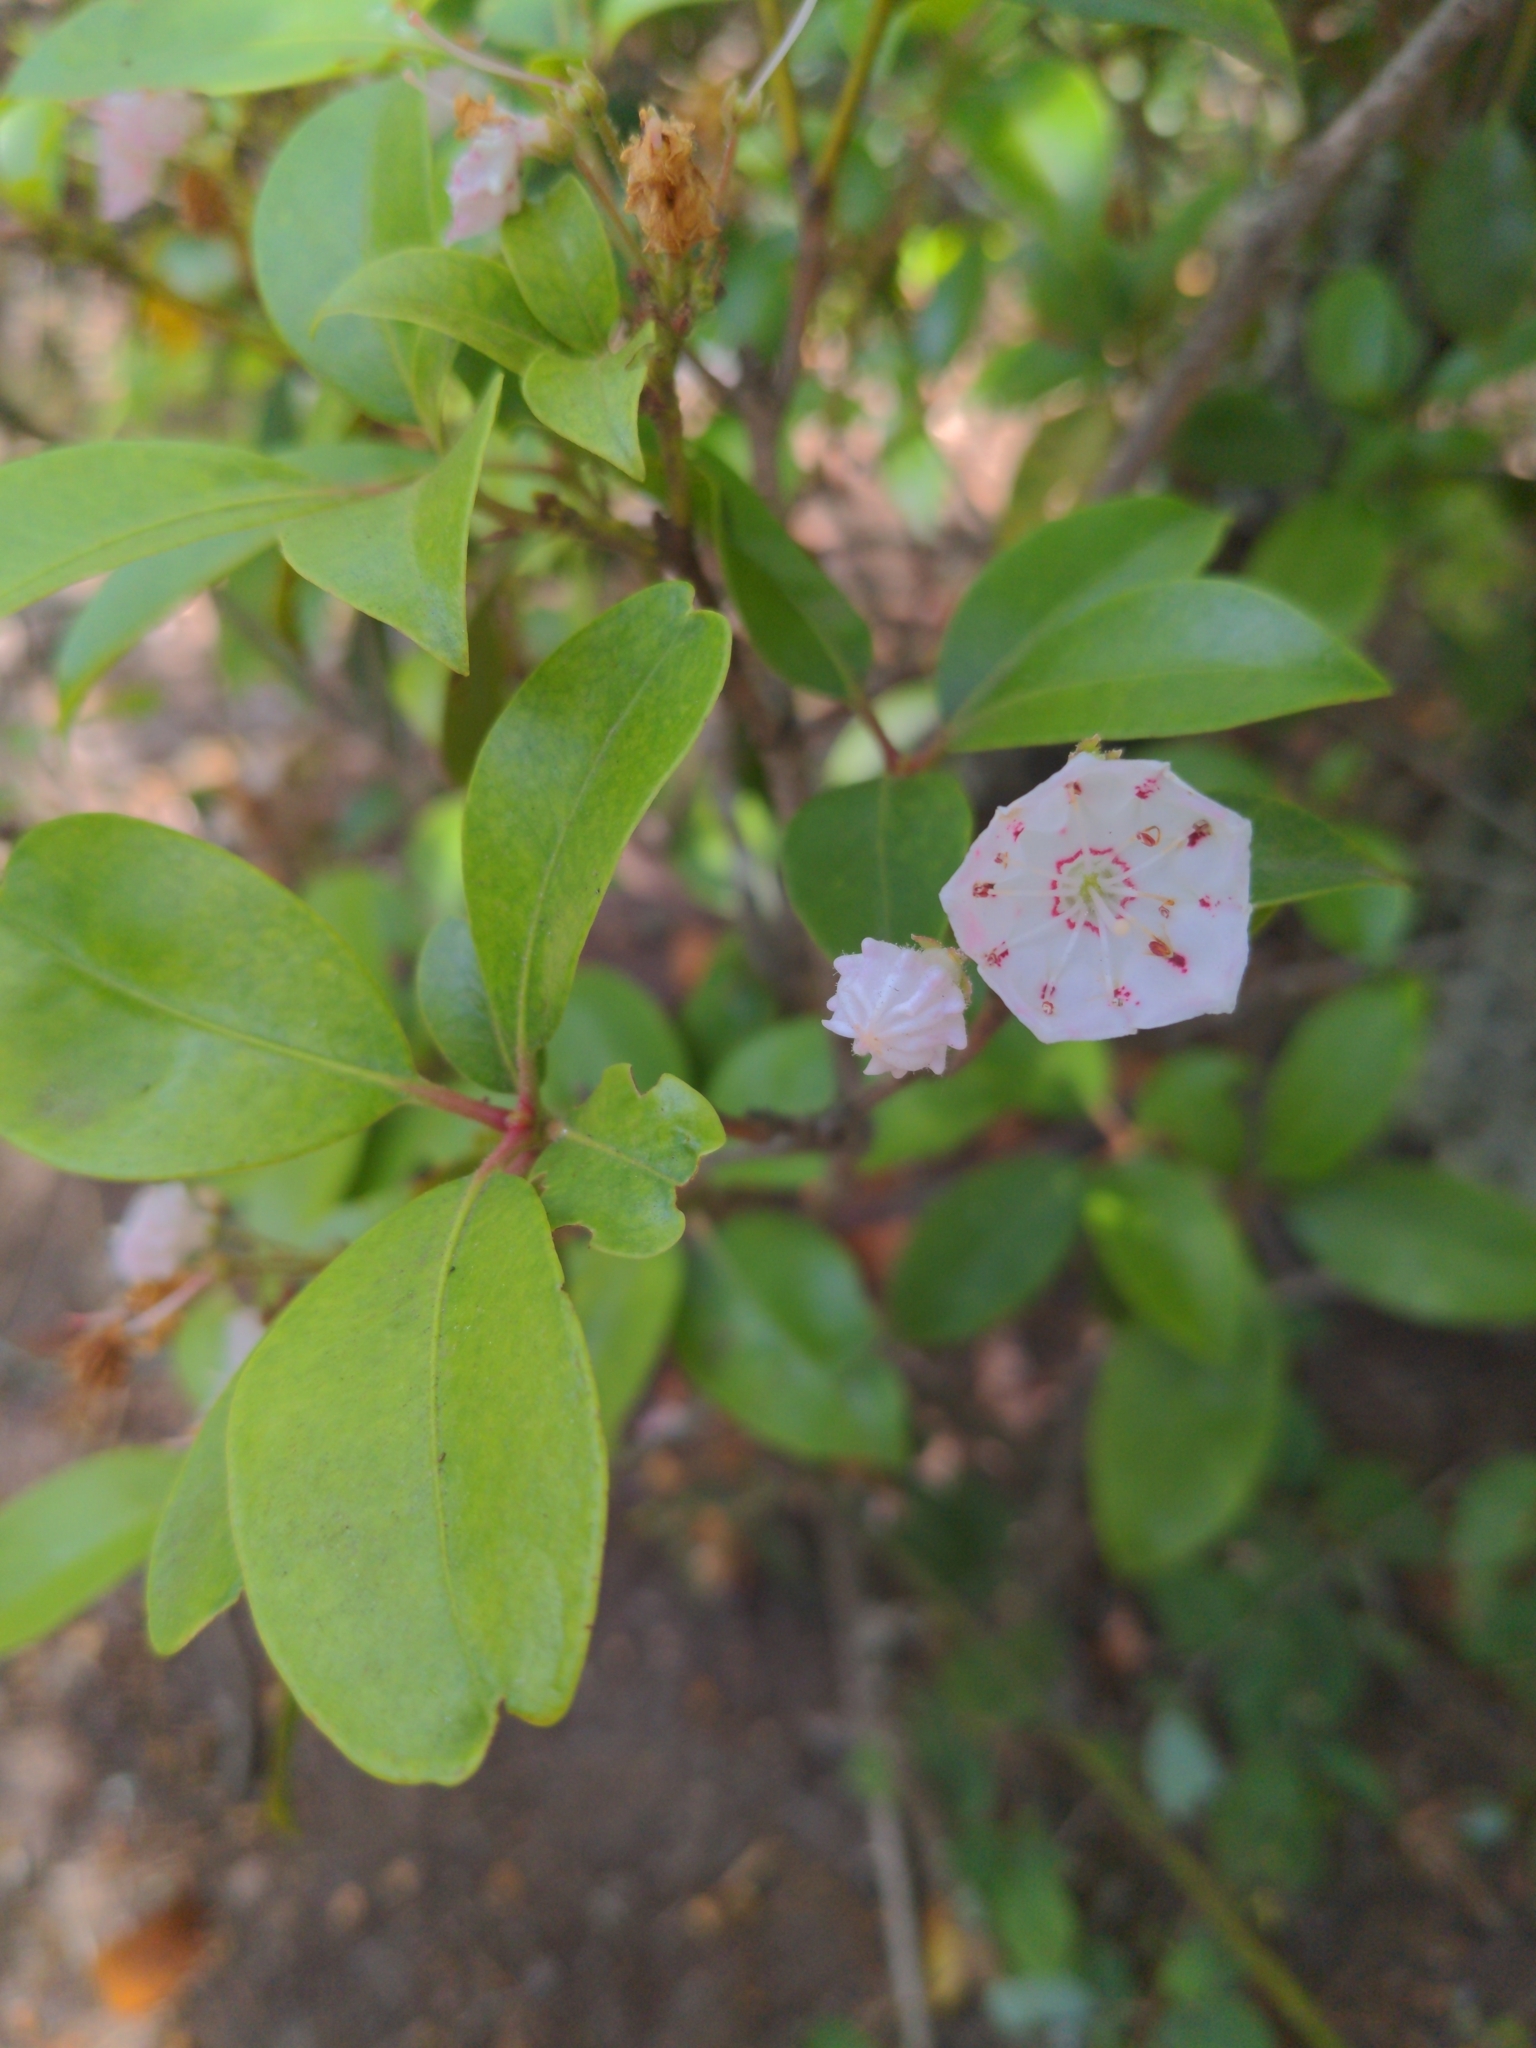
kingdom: Plantae
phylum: Tracheophyta
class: Magnoliopsida
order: Ericales
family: Ericaceae
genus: Kalmia
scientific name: Kalmia latifolia
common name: Mountain-laurel
